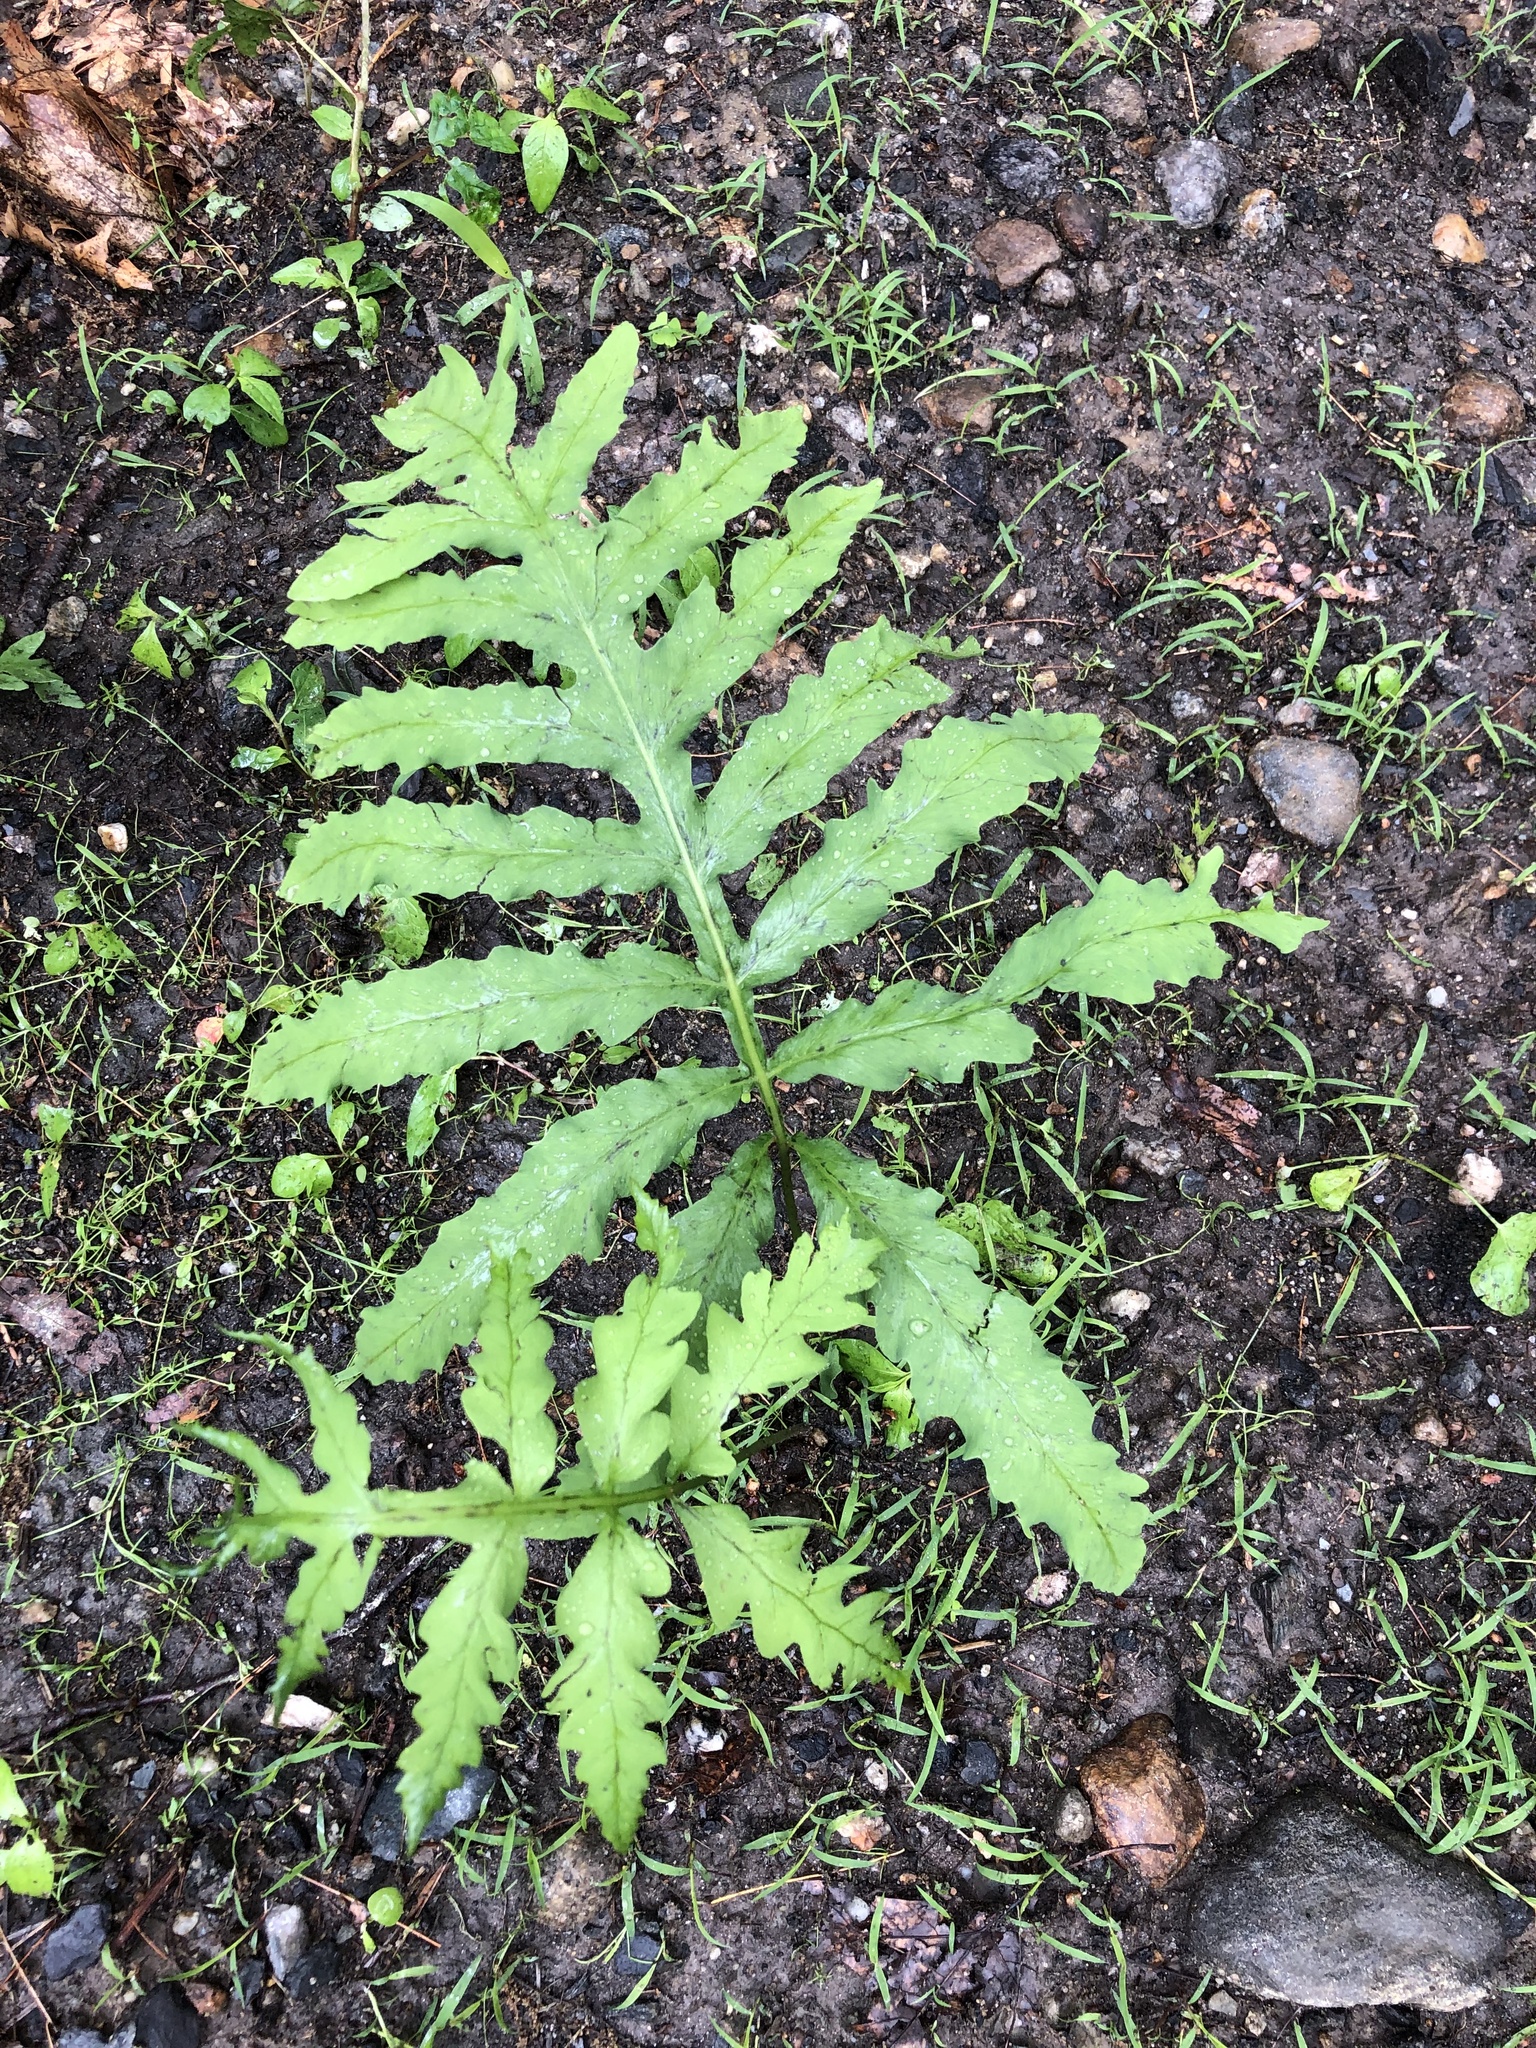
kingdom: Plantae
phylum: Tracheophyta
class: Polypodiopsida
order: Polypodiales
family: Onocleaceae
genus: Onoclea
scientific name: Onoclea sensibilis
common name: Sensitive fern
